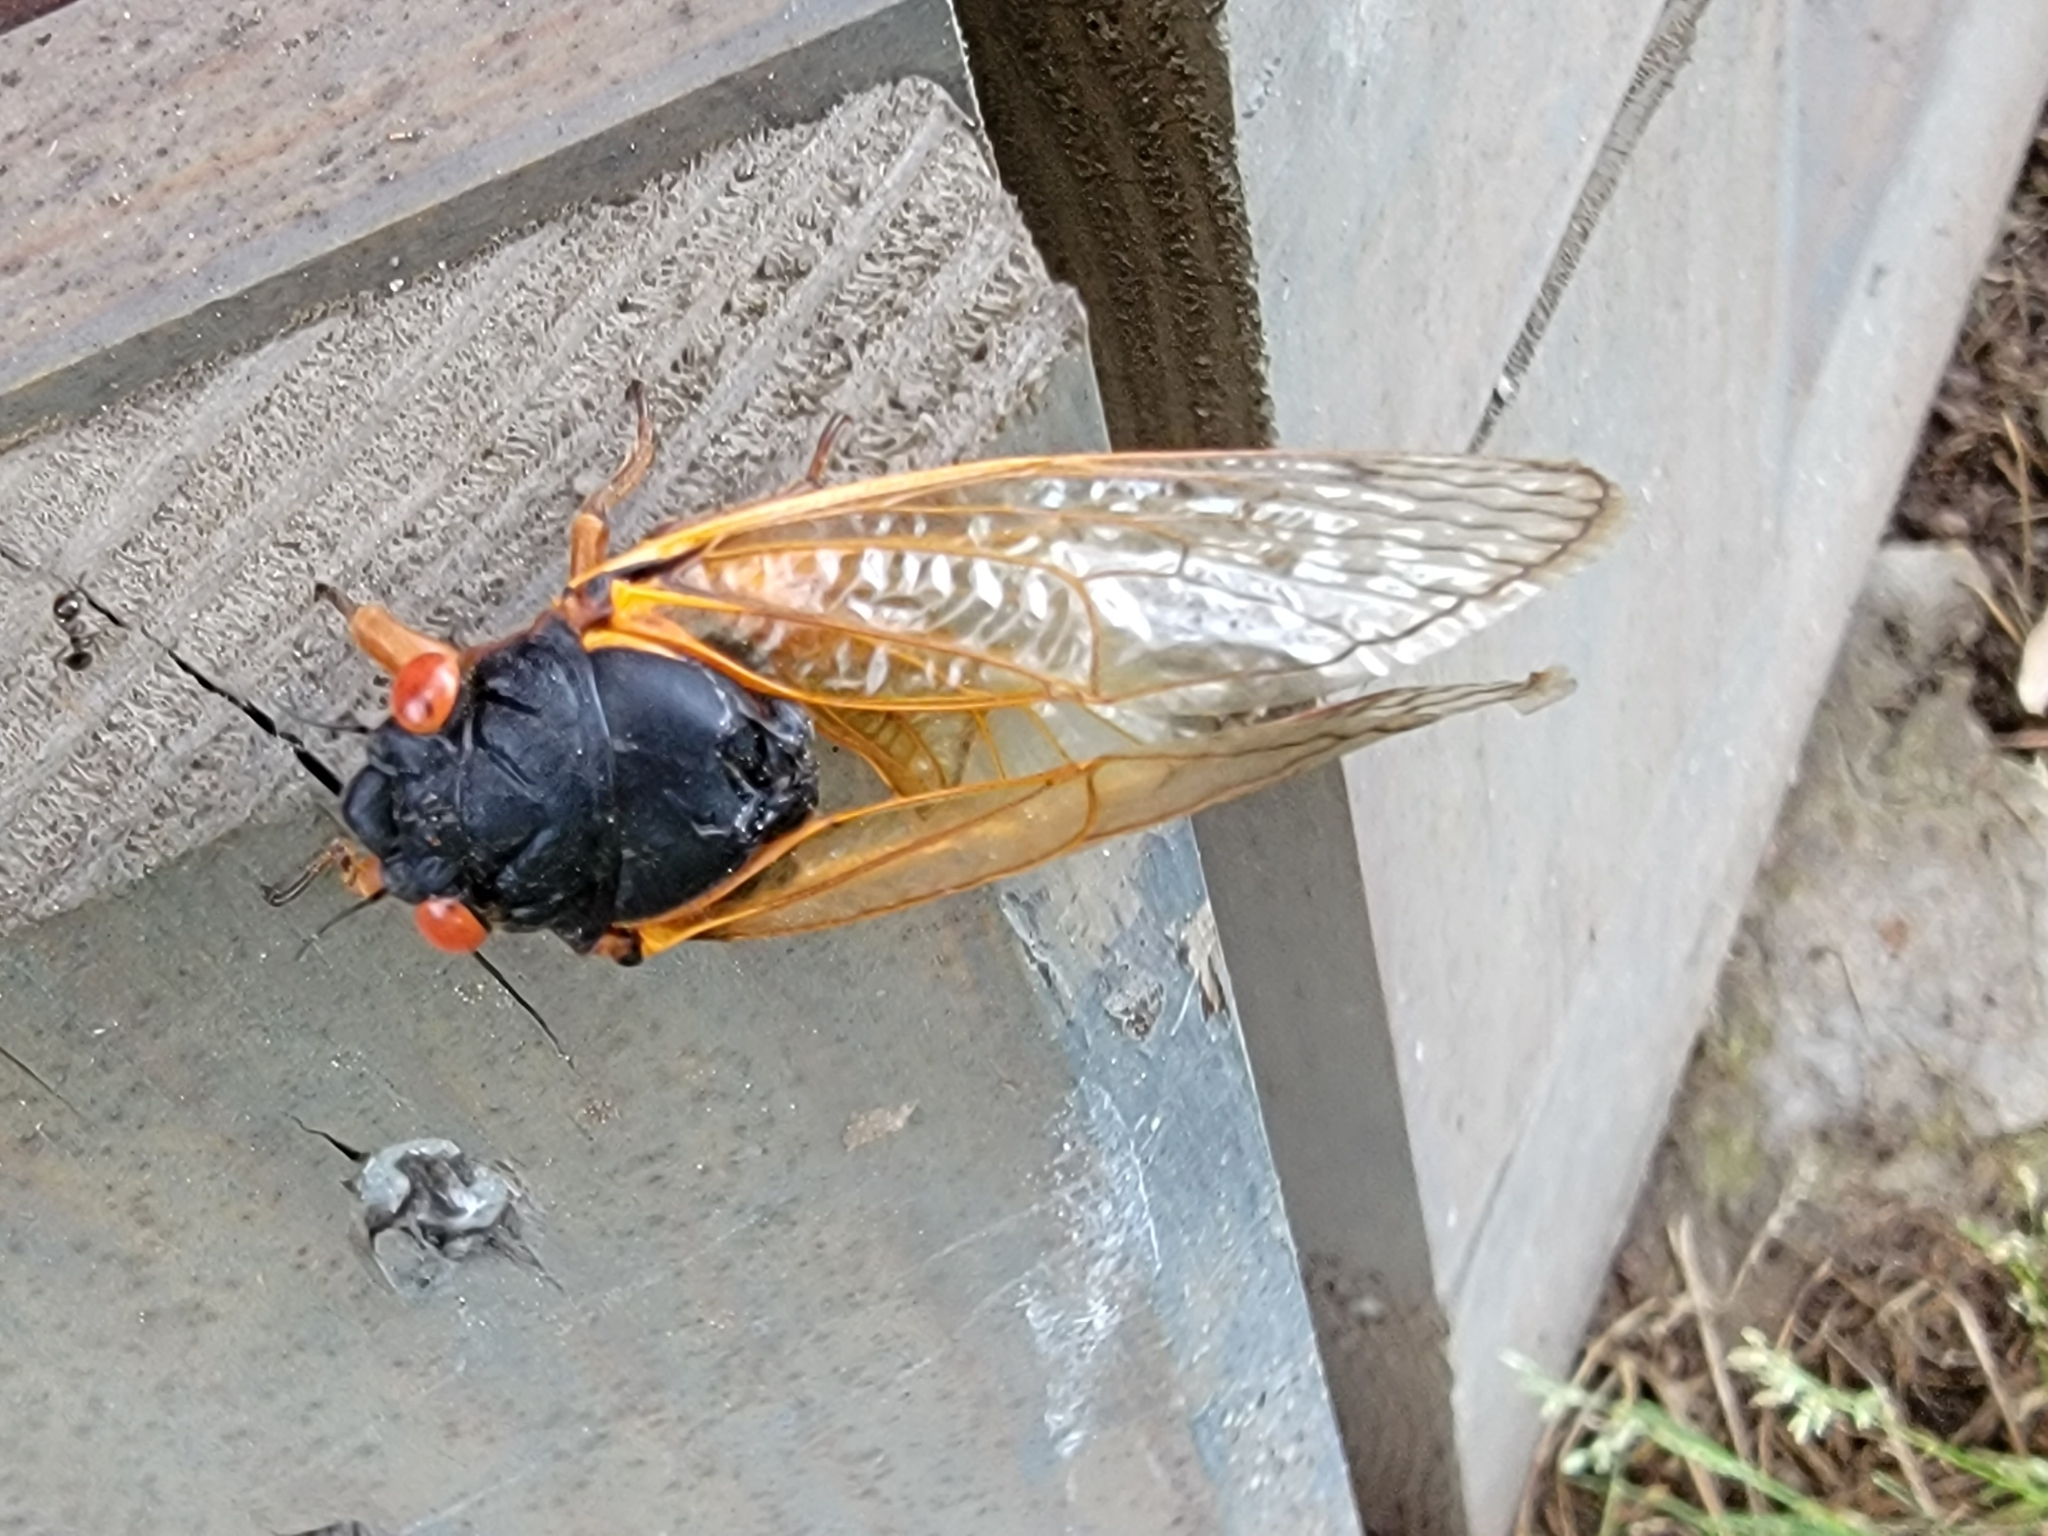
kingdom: Animalia
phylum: Arthropoda
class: Insecta
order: Hemiptera
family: Cicadidae
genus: Magicicada
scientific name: Magicicada septendecim
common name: Periodical cicada
